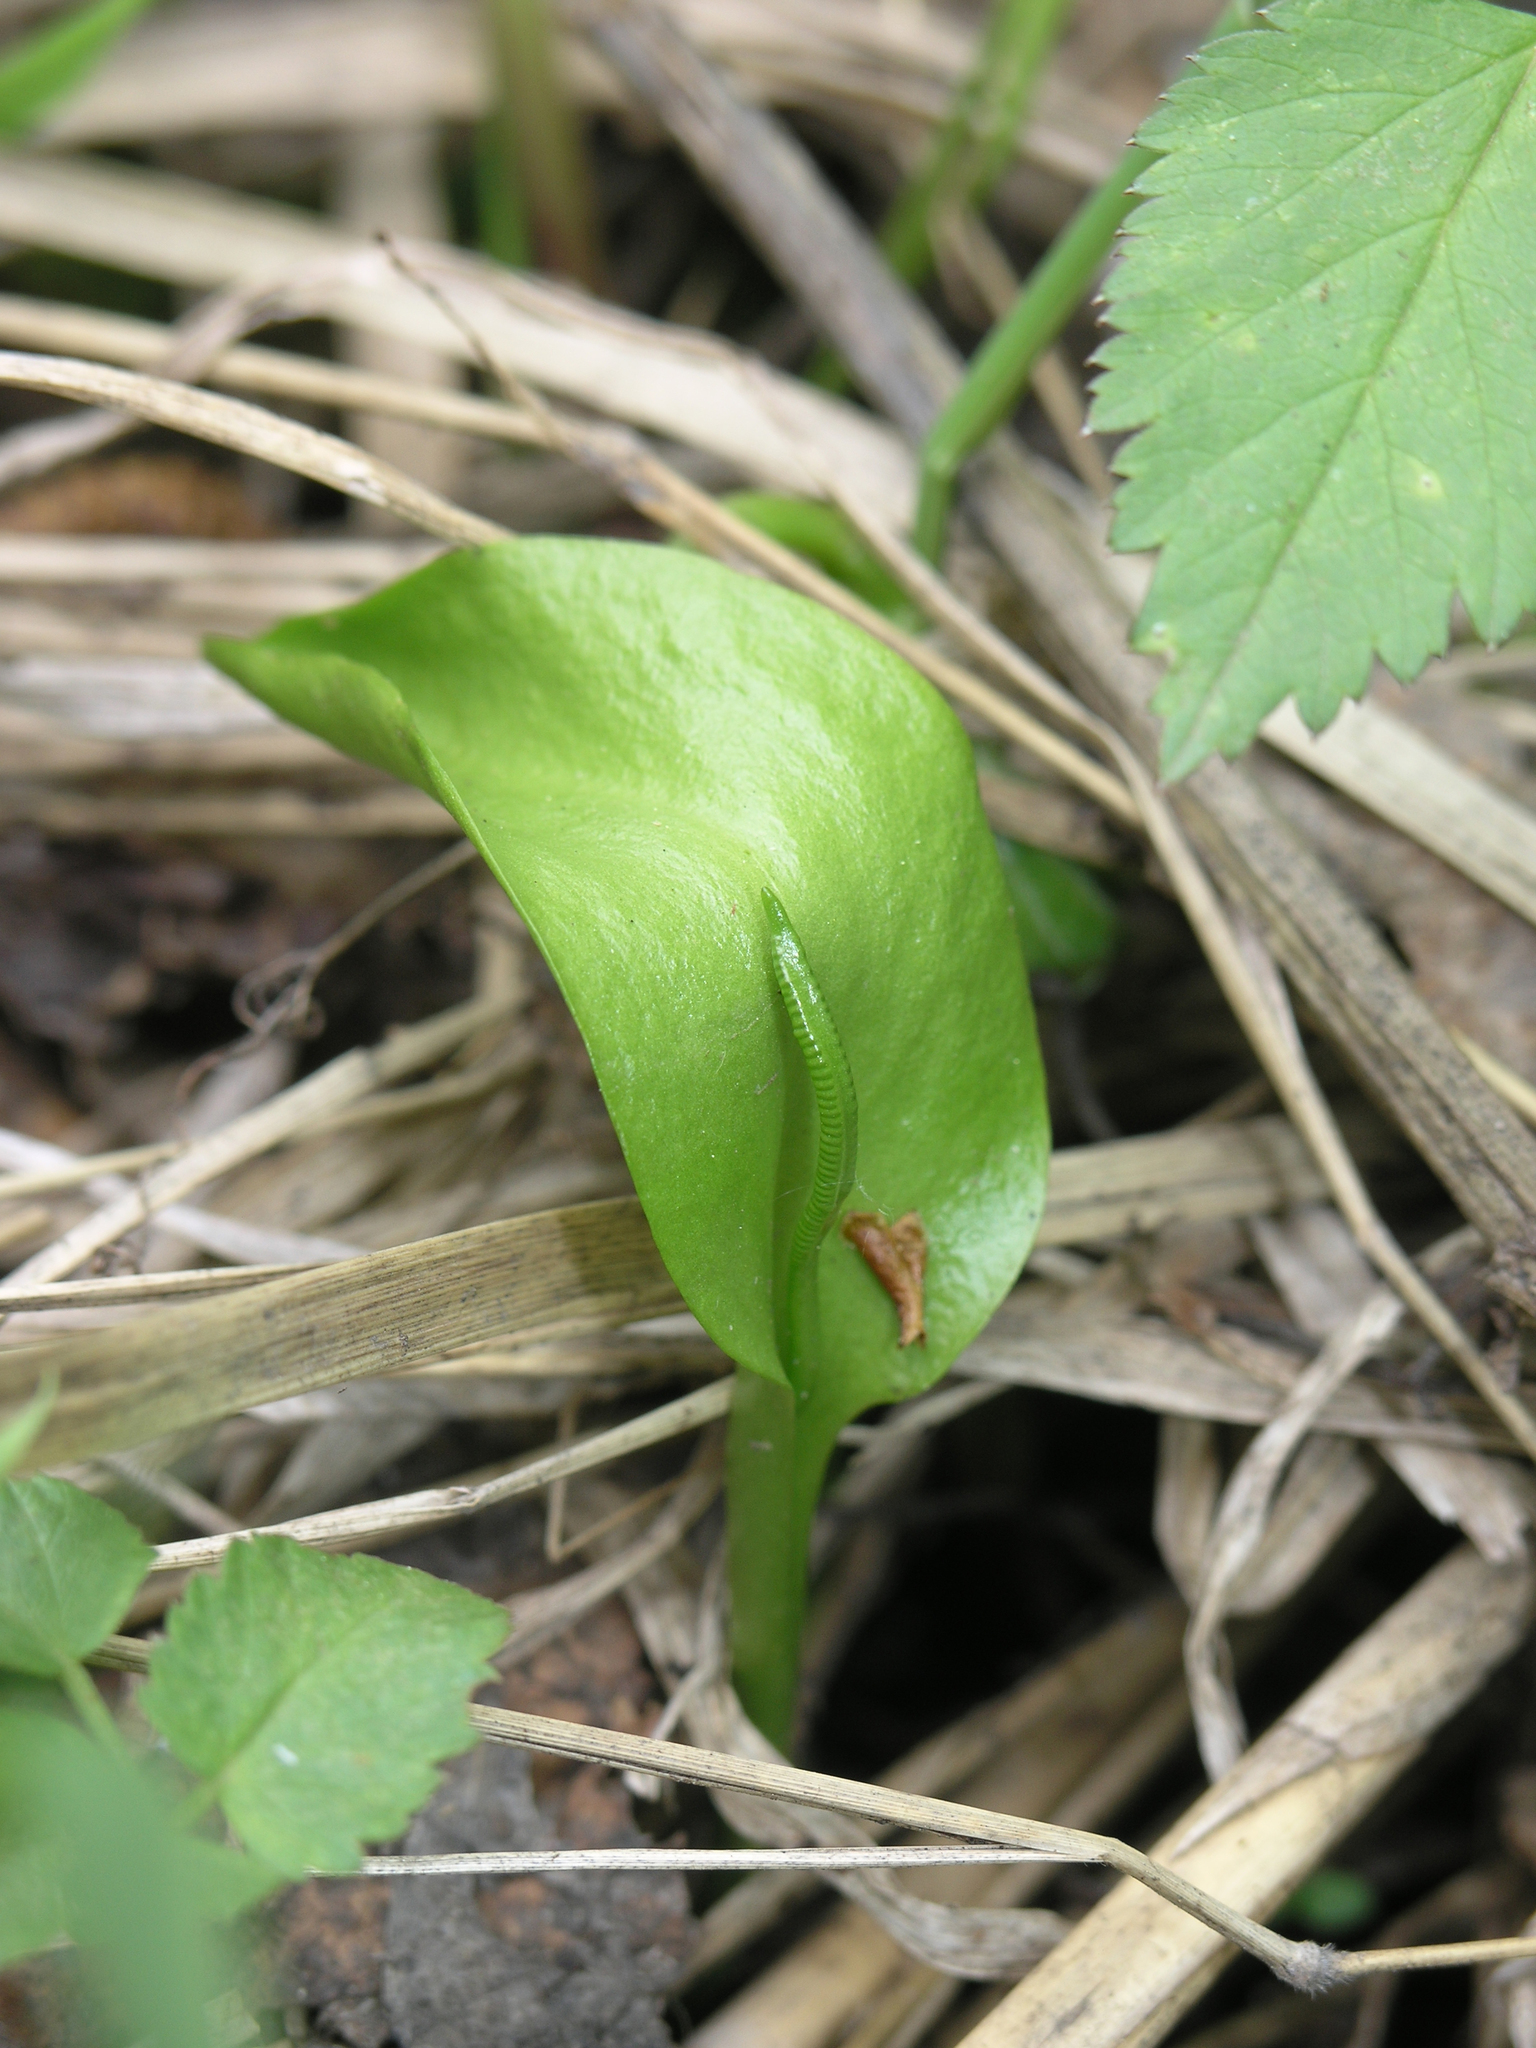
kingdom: Plantae
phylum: Tracheophyta
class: Polypodiopsida
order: Ophioglossales
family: Ophioglossaceae
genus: Ophioglossum
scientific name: Ophioglossum vulgatum
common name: Adder's-tongue
